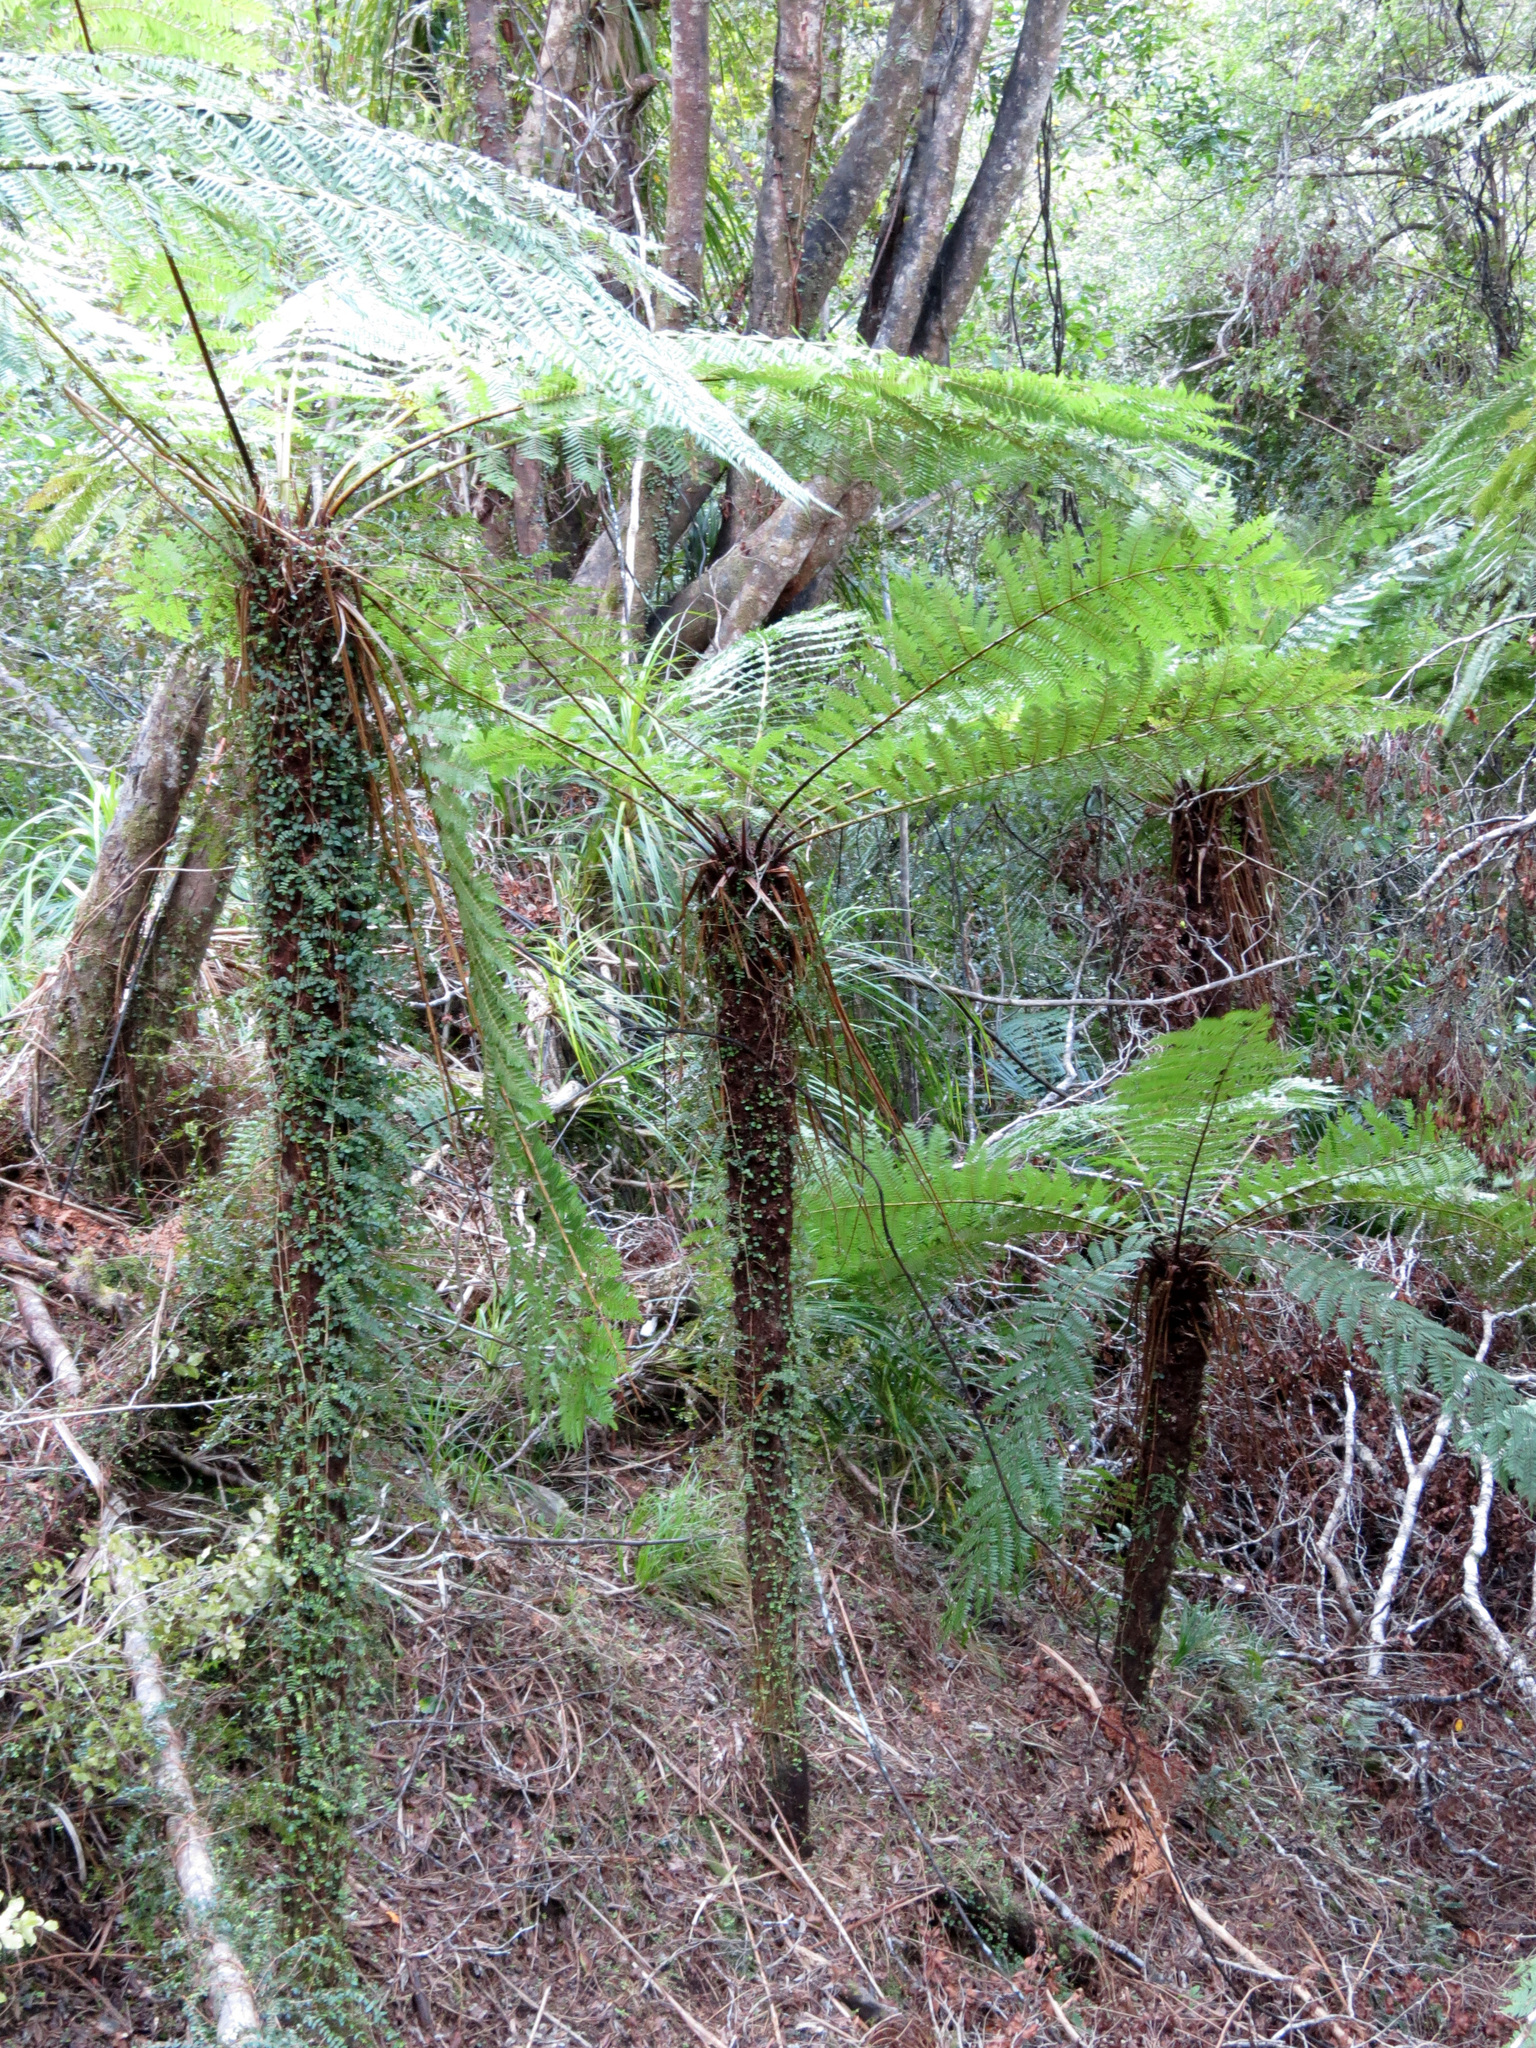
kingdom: Plantae
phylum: Tracheophyta
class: Polypodiopsida
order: Cyatheales
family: Cyatheaceae
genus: Alsophila
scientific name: Alsophila smithii
